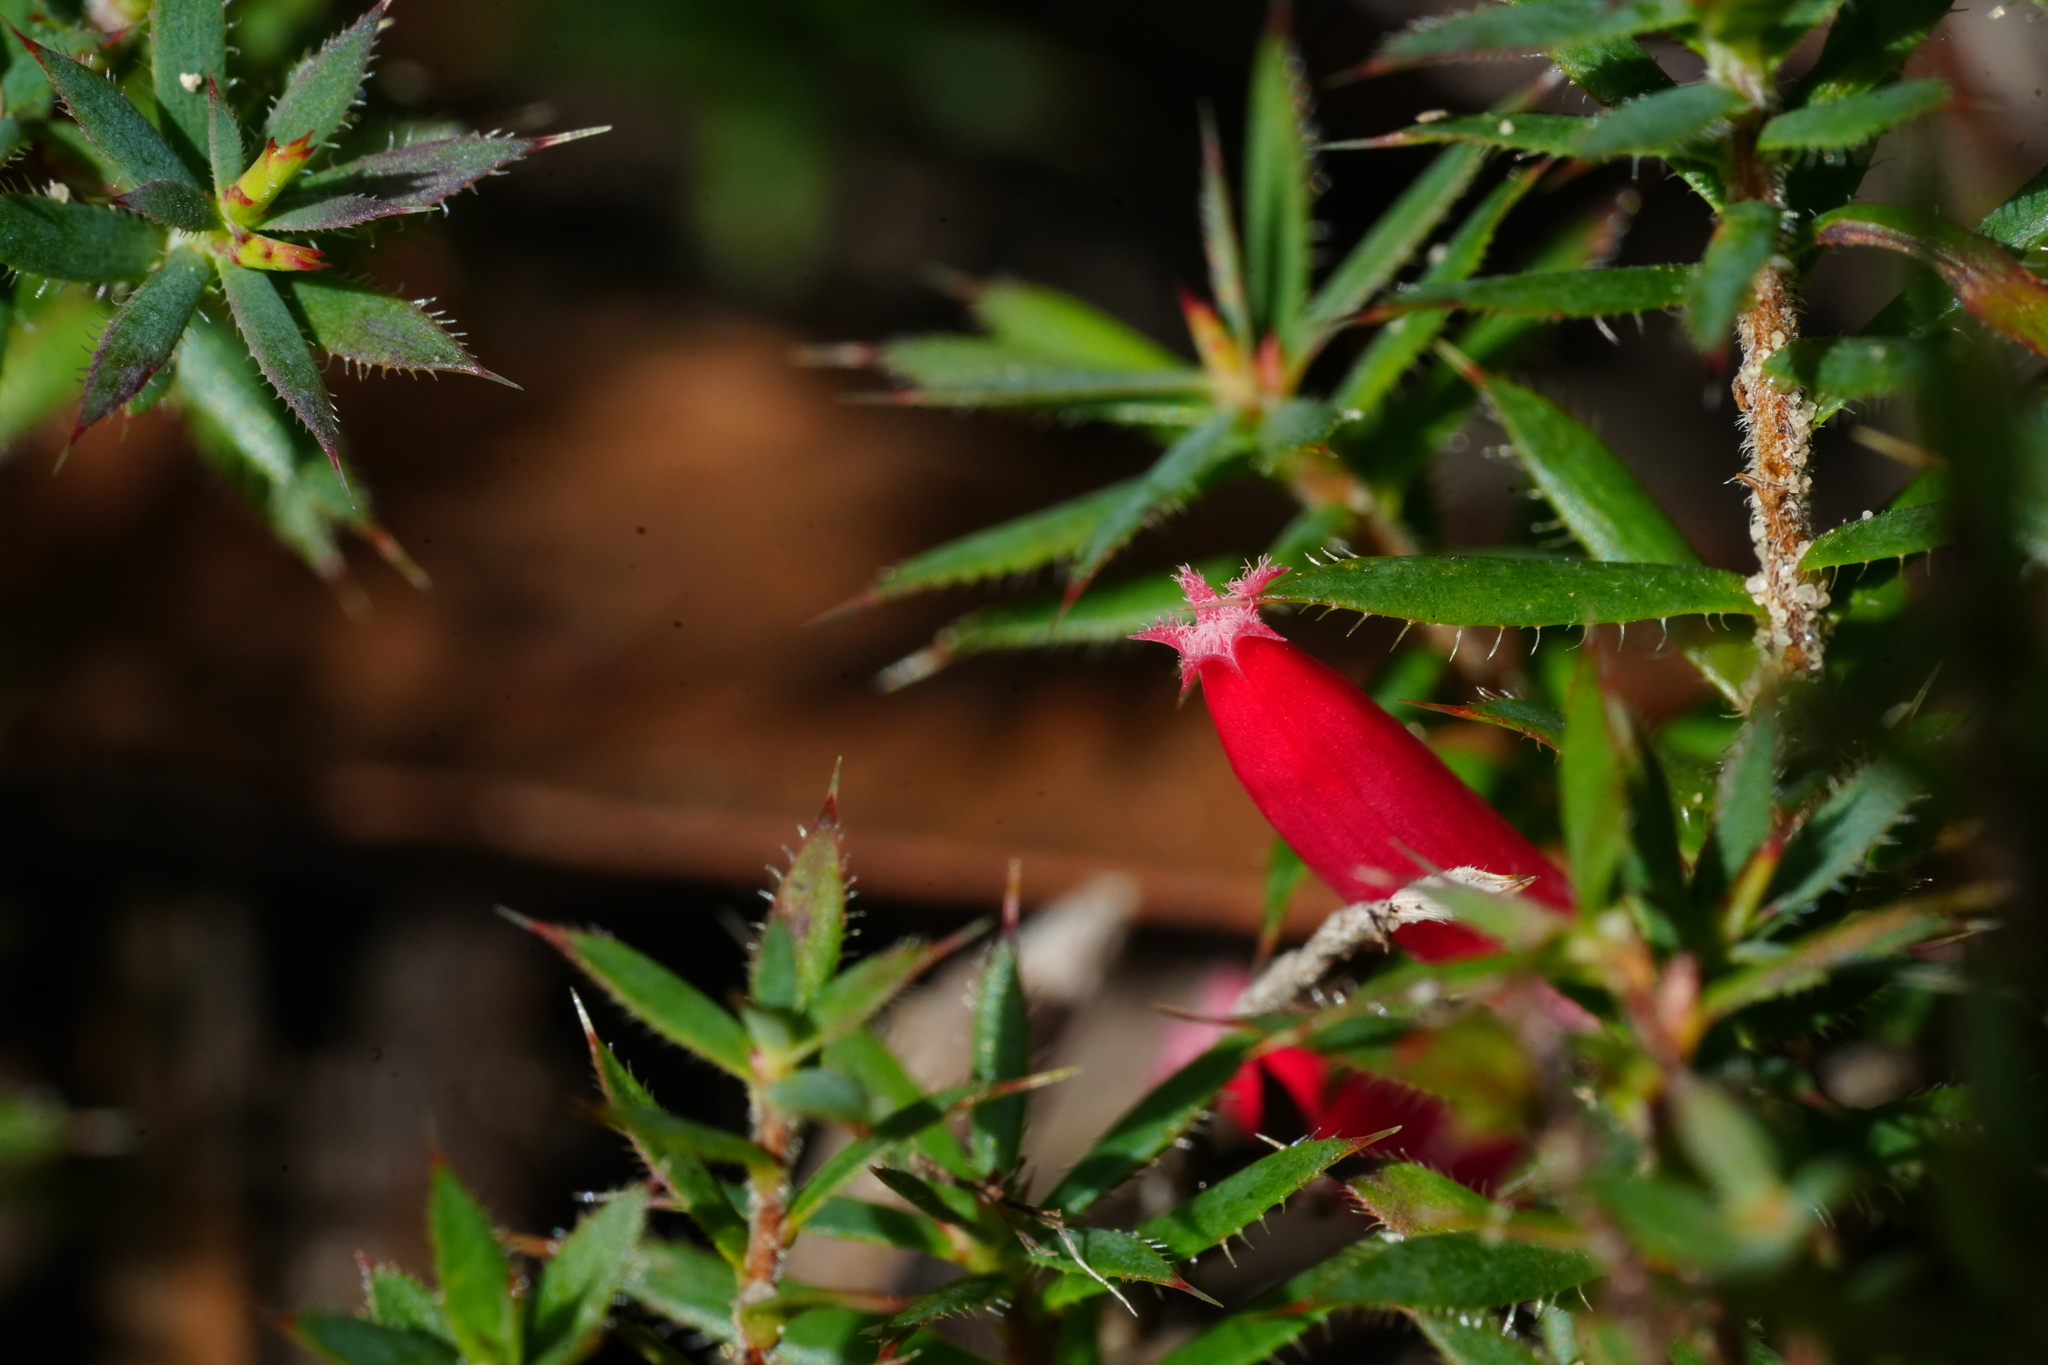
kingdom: Plantae
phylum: Tracheophyta
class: Magnoliopsida
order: Ericales
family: Ericaceae
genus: Styphelia
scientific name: Styphelia humifusa
